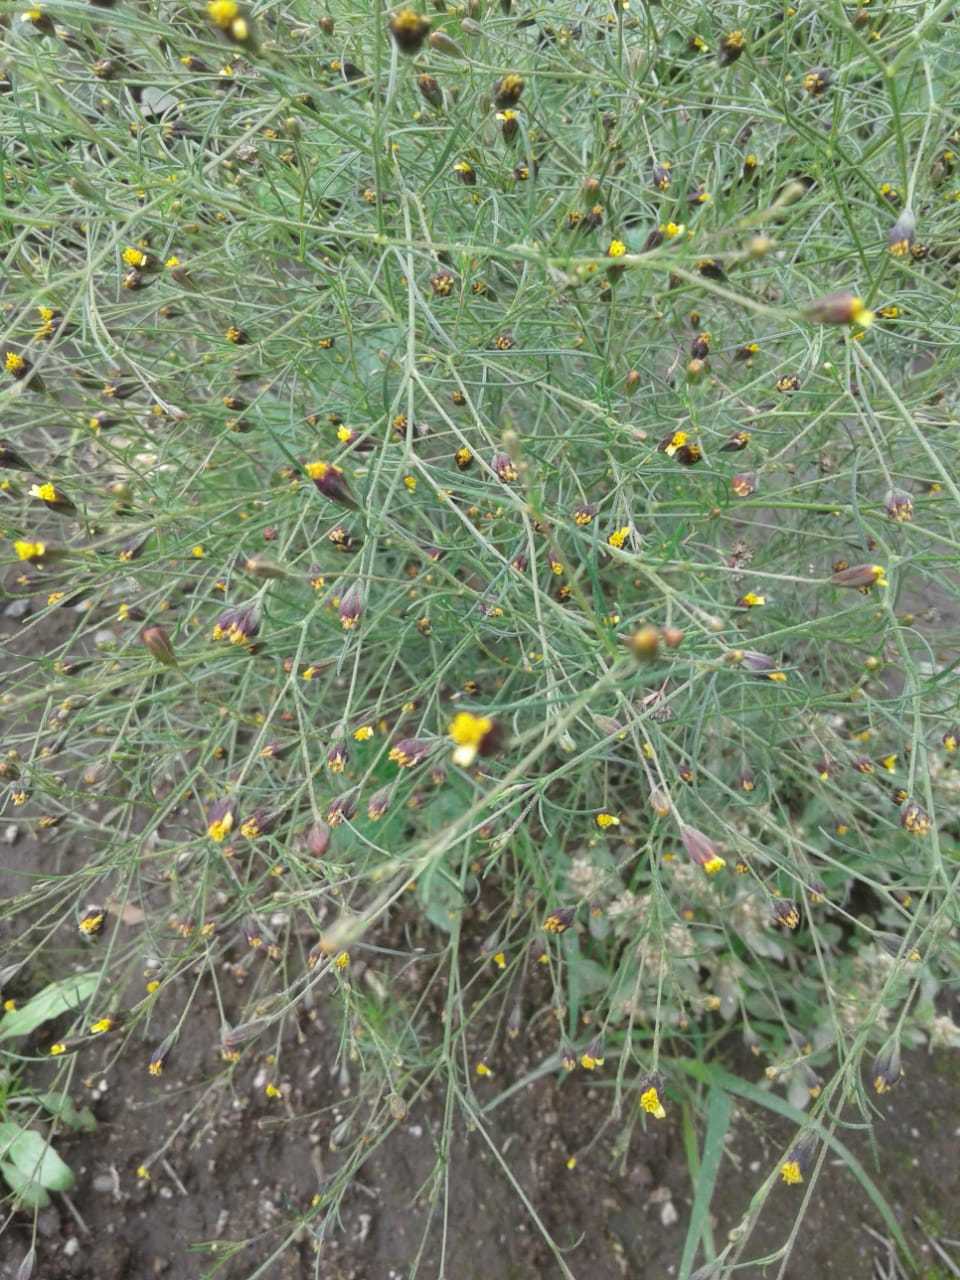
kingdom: Plantae
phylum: Tracheophyta
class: Magnoliopsida
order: Asterales
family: Asteraceae
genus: Schkuhria
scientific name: Schkuhria pinnata
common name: Dwarf marigold
